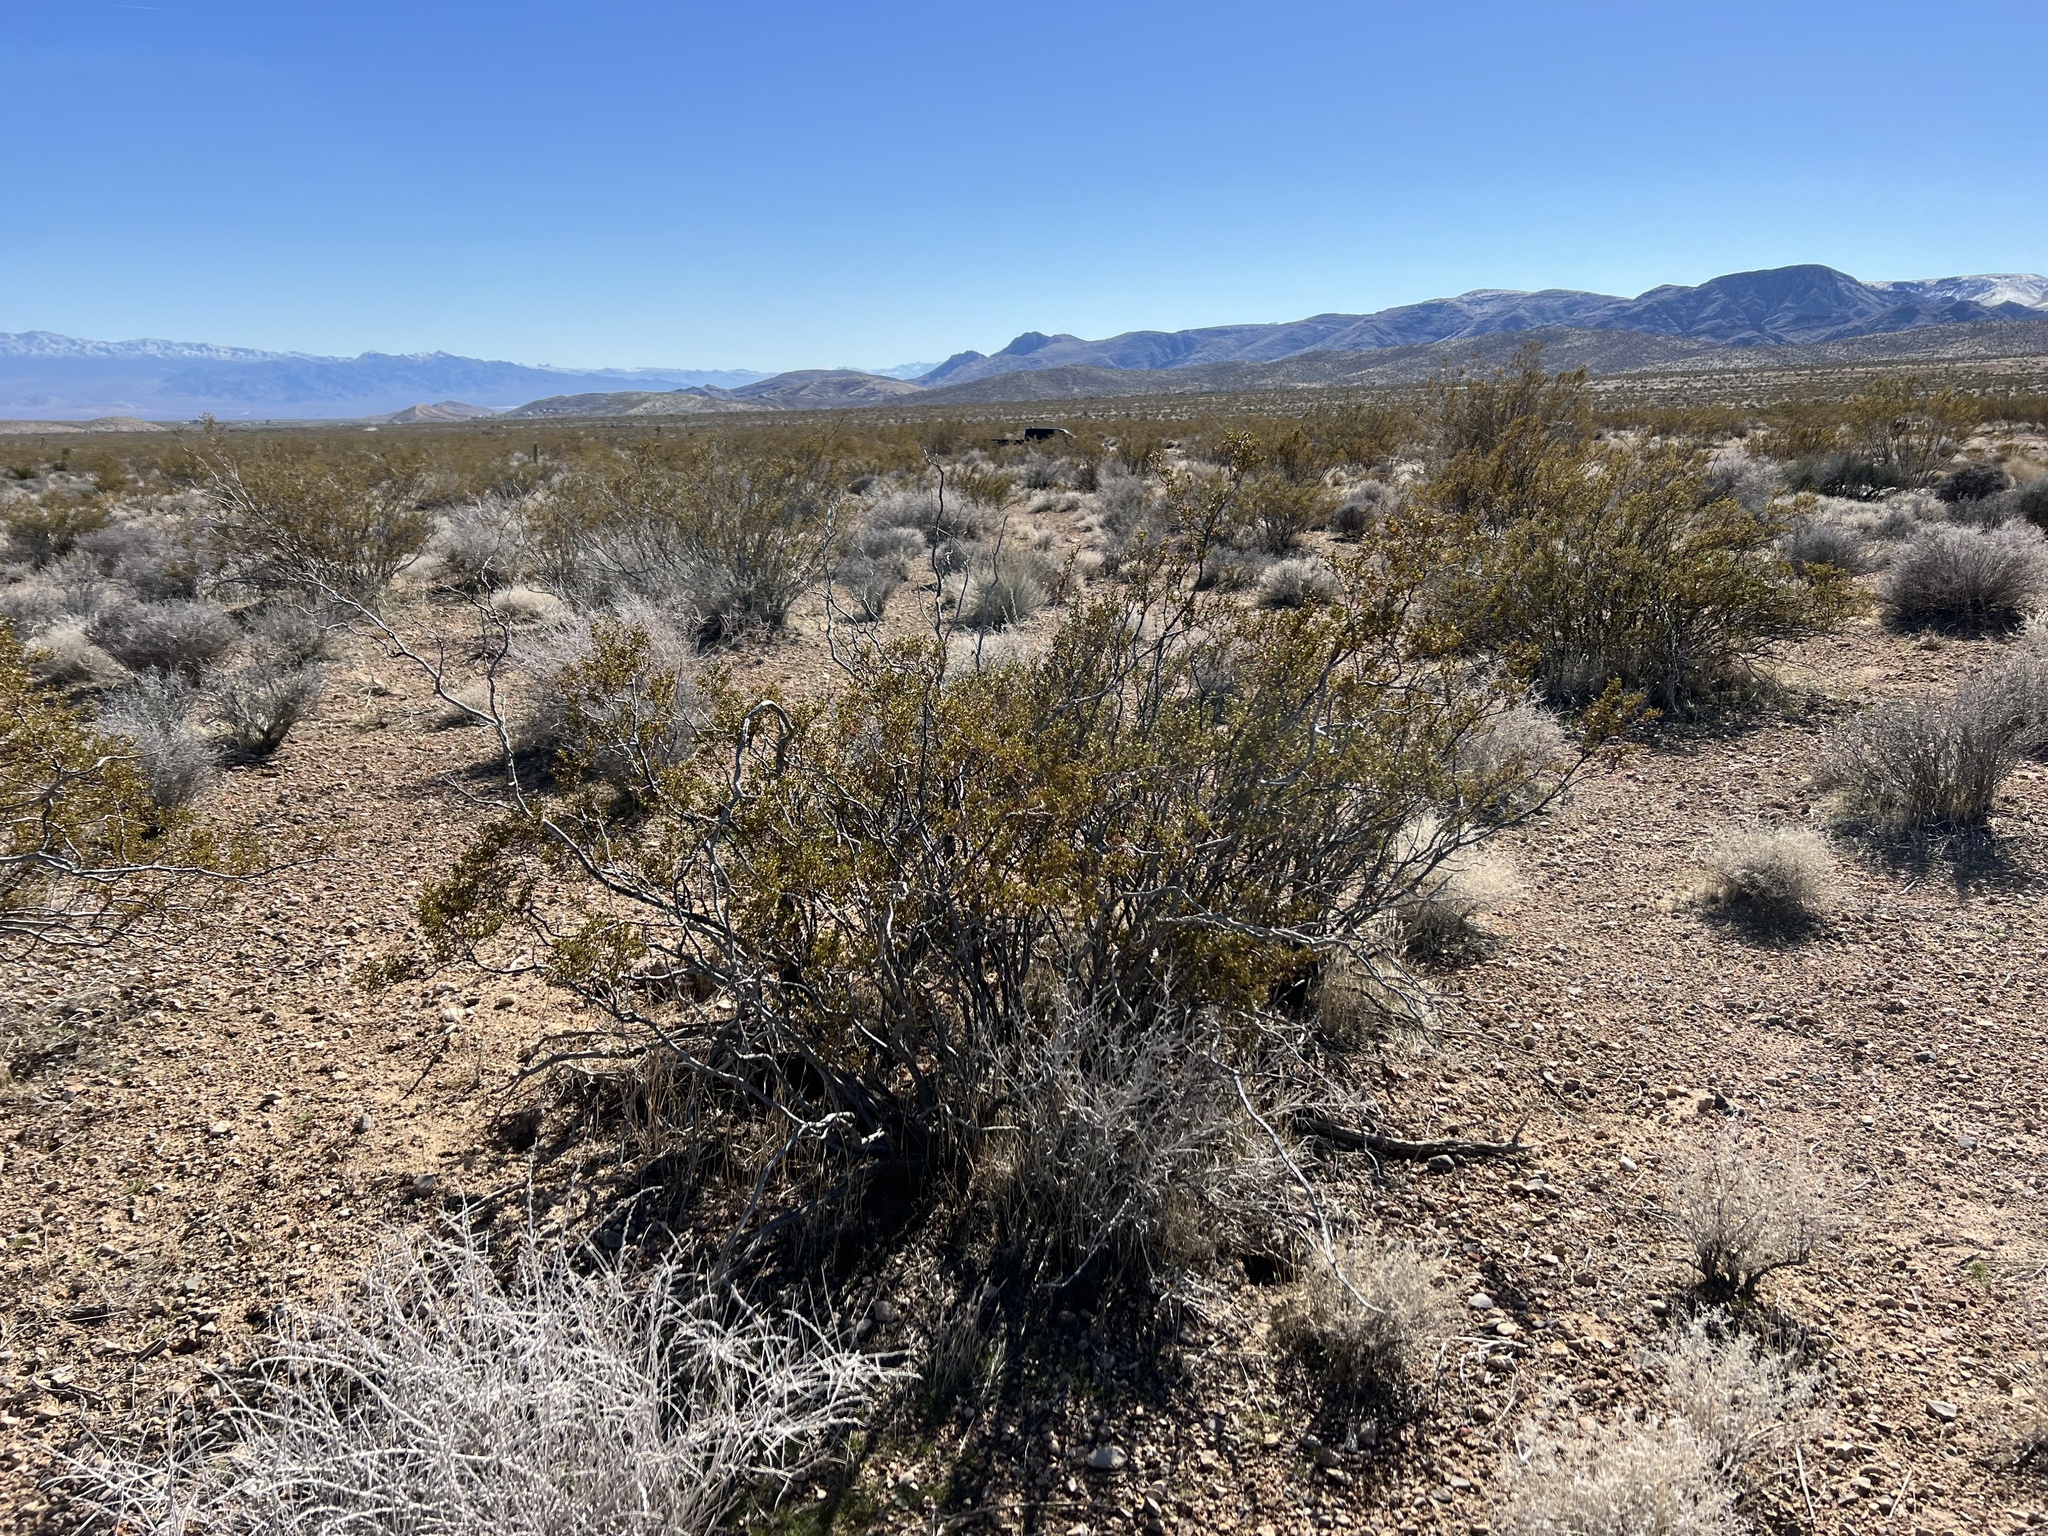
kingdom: Plantae
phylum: Tracheophyta
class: Magnoliopsida
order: Zygophyllales
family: Zygophyllaceae
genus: Larrea
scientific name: Larrea tridentata
